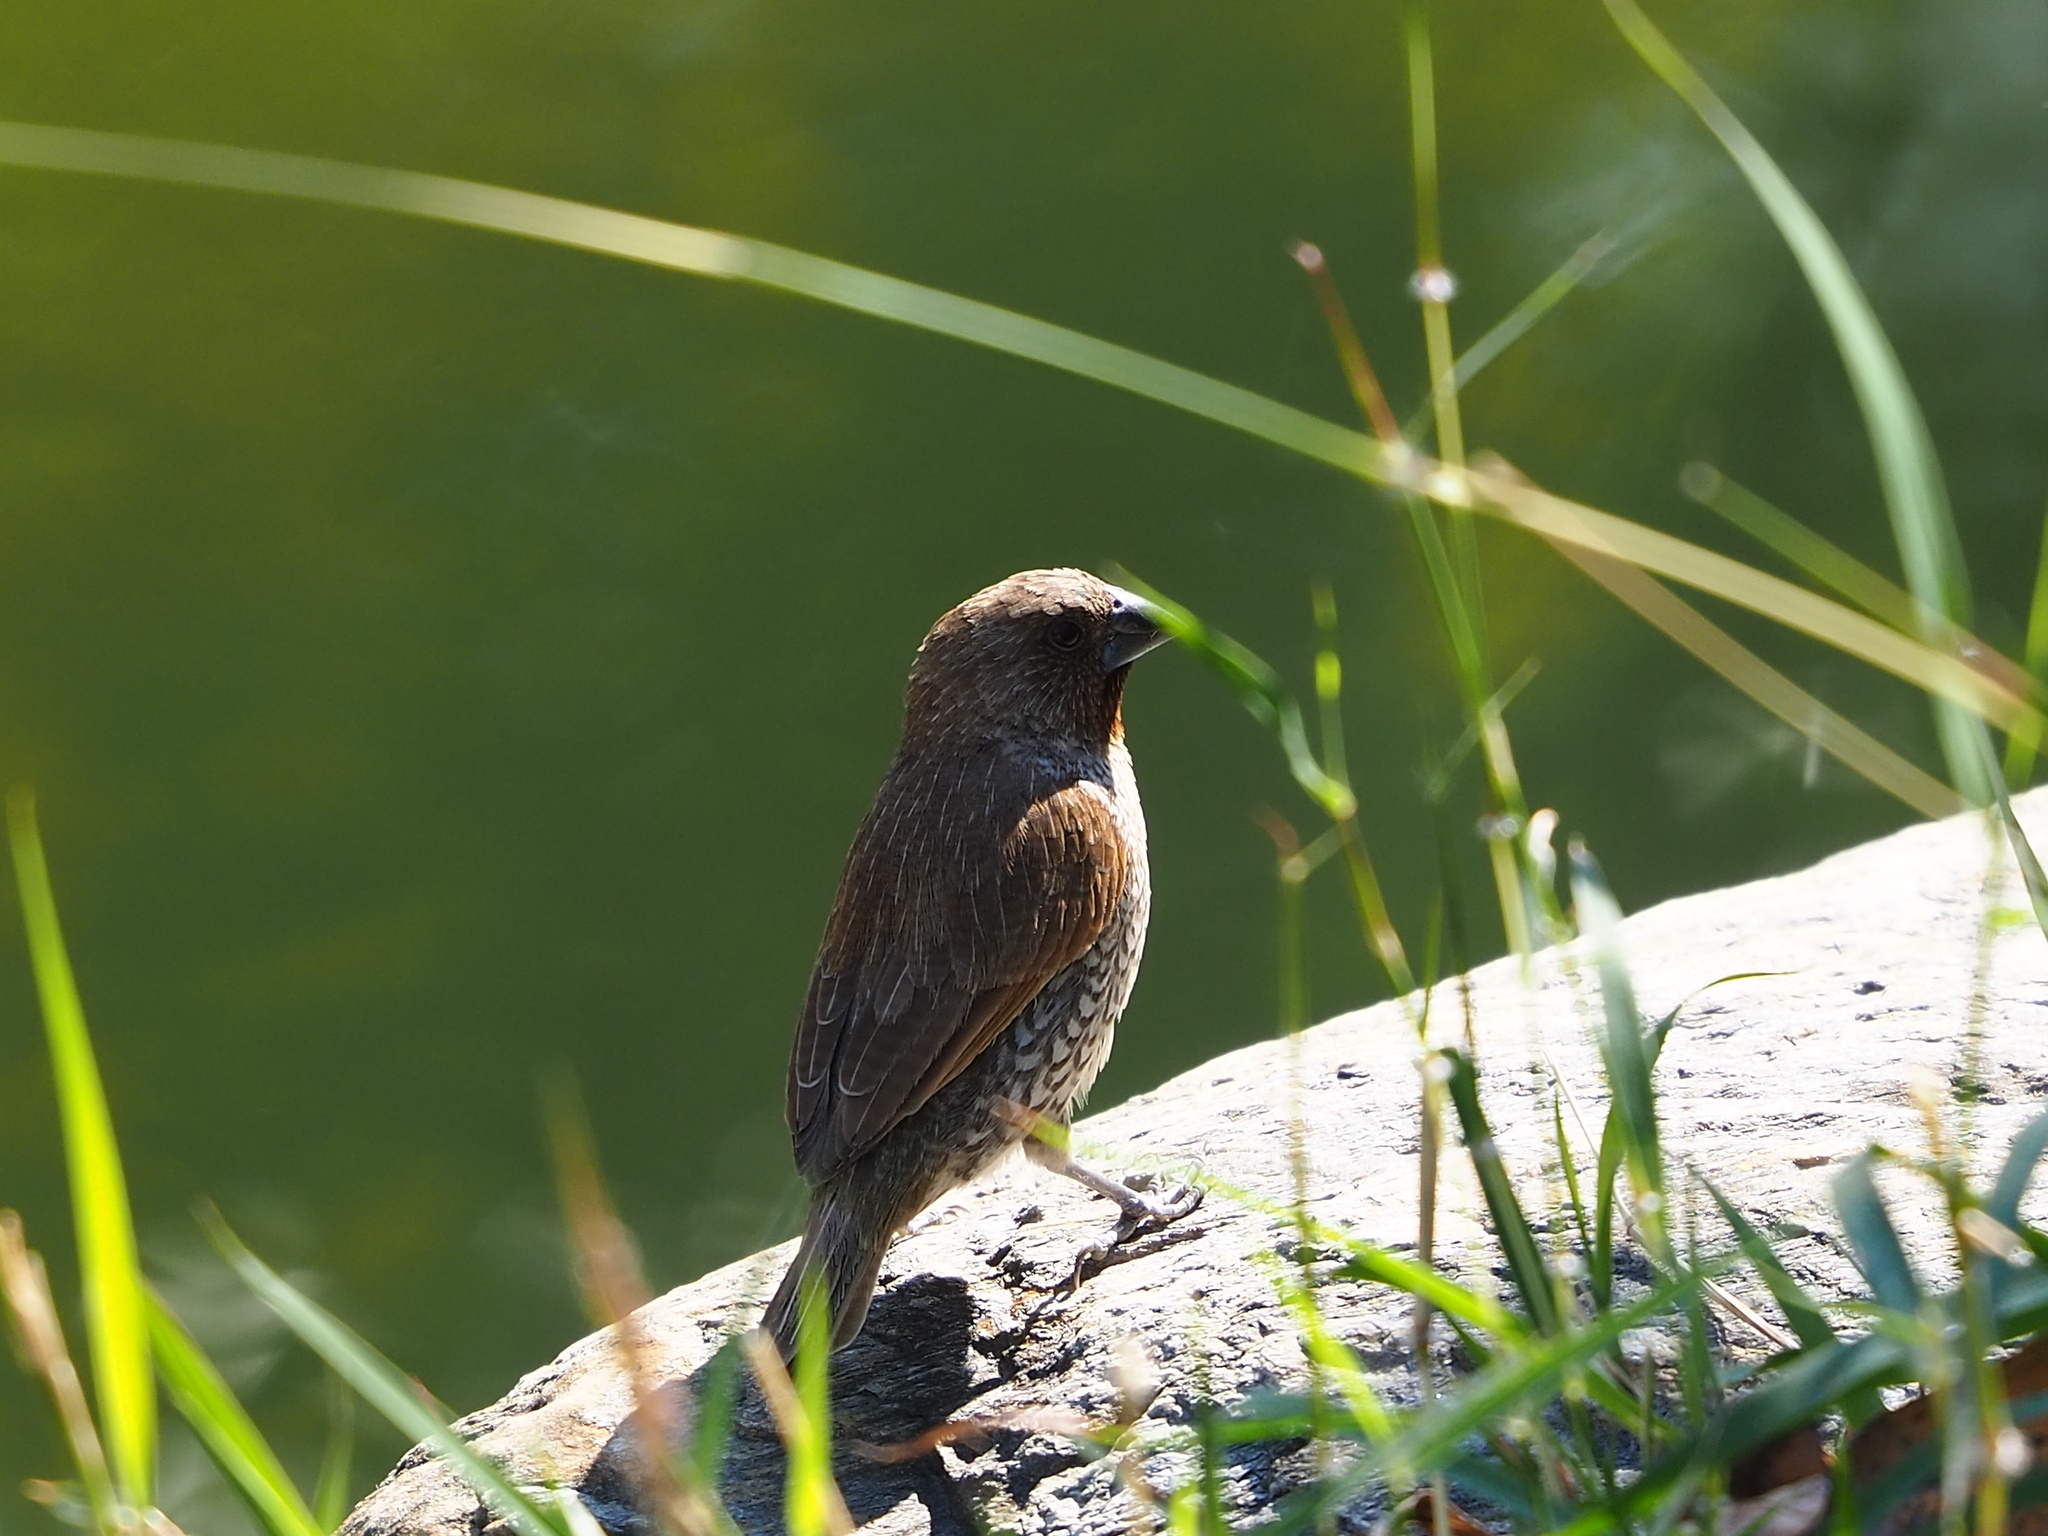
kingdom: Animalia
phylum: Chordata
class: Aves
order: Passeriformes
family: Estrildidae
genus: Lonchura
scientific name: Lonchura punctulata
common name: Scaly-breasted munia
